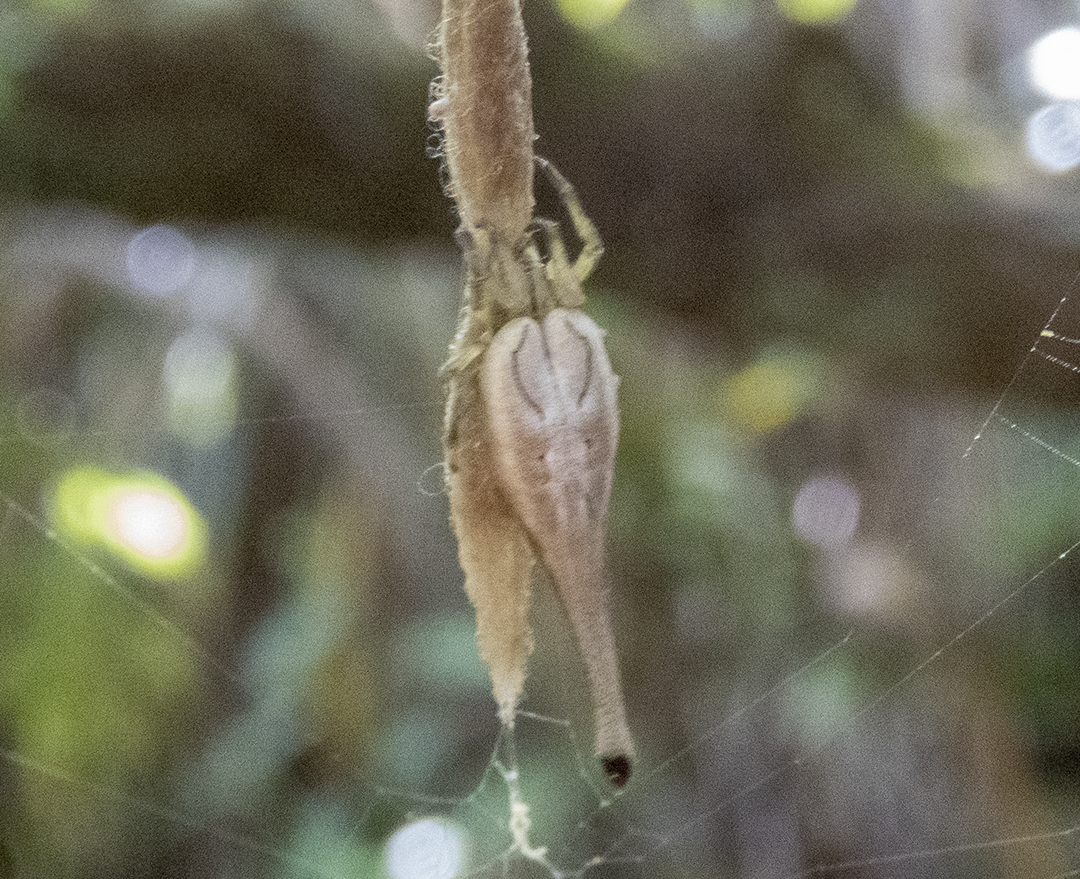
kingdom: Animalia
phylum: Arthropoda
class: Arachnida
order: Araneae
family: Araneidae
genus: Arachnura
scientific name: Arachnura feredayi
